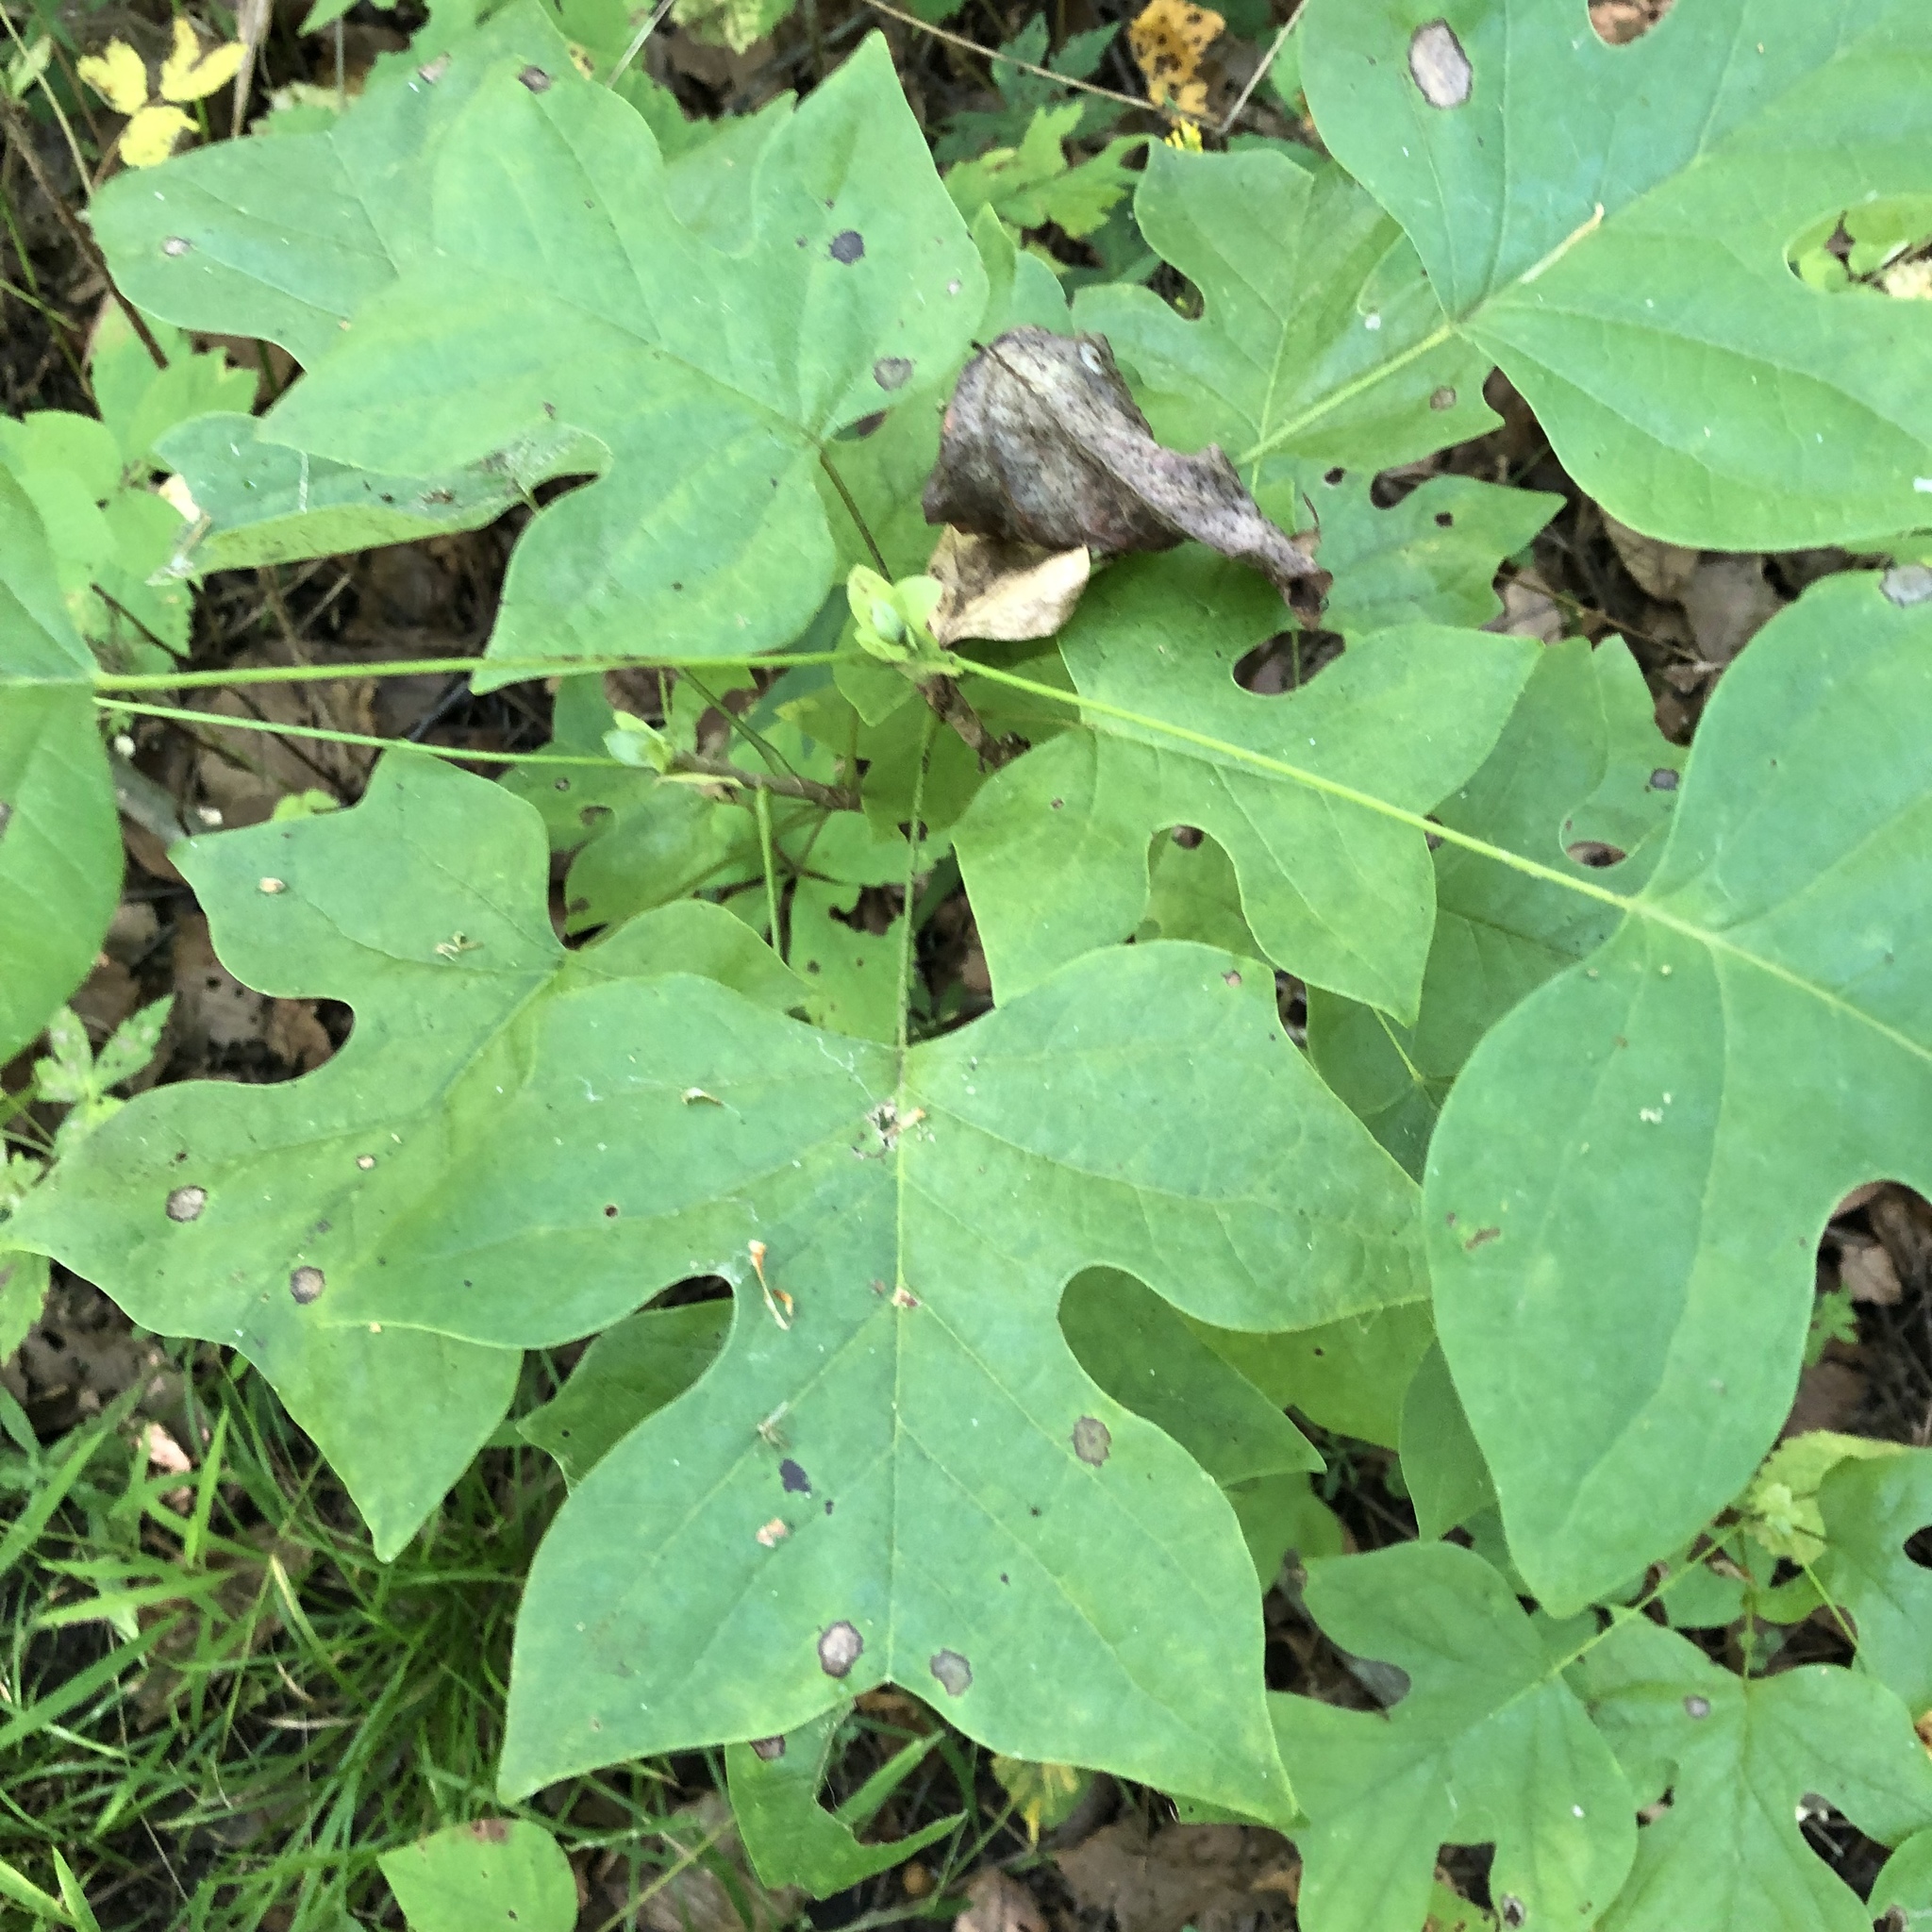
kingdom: Plantae
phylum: Tracheophyta
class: Magnoliopsida
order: Magnoliales
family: Magnoliaceae
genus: Liriodendron
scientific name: Liriodendron tulipifera
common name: Tulip tree
